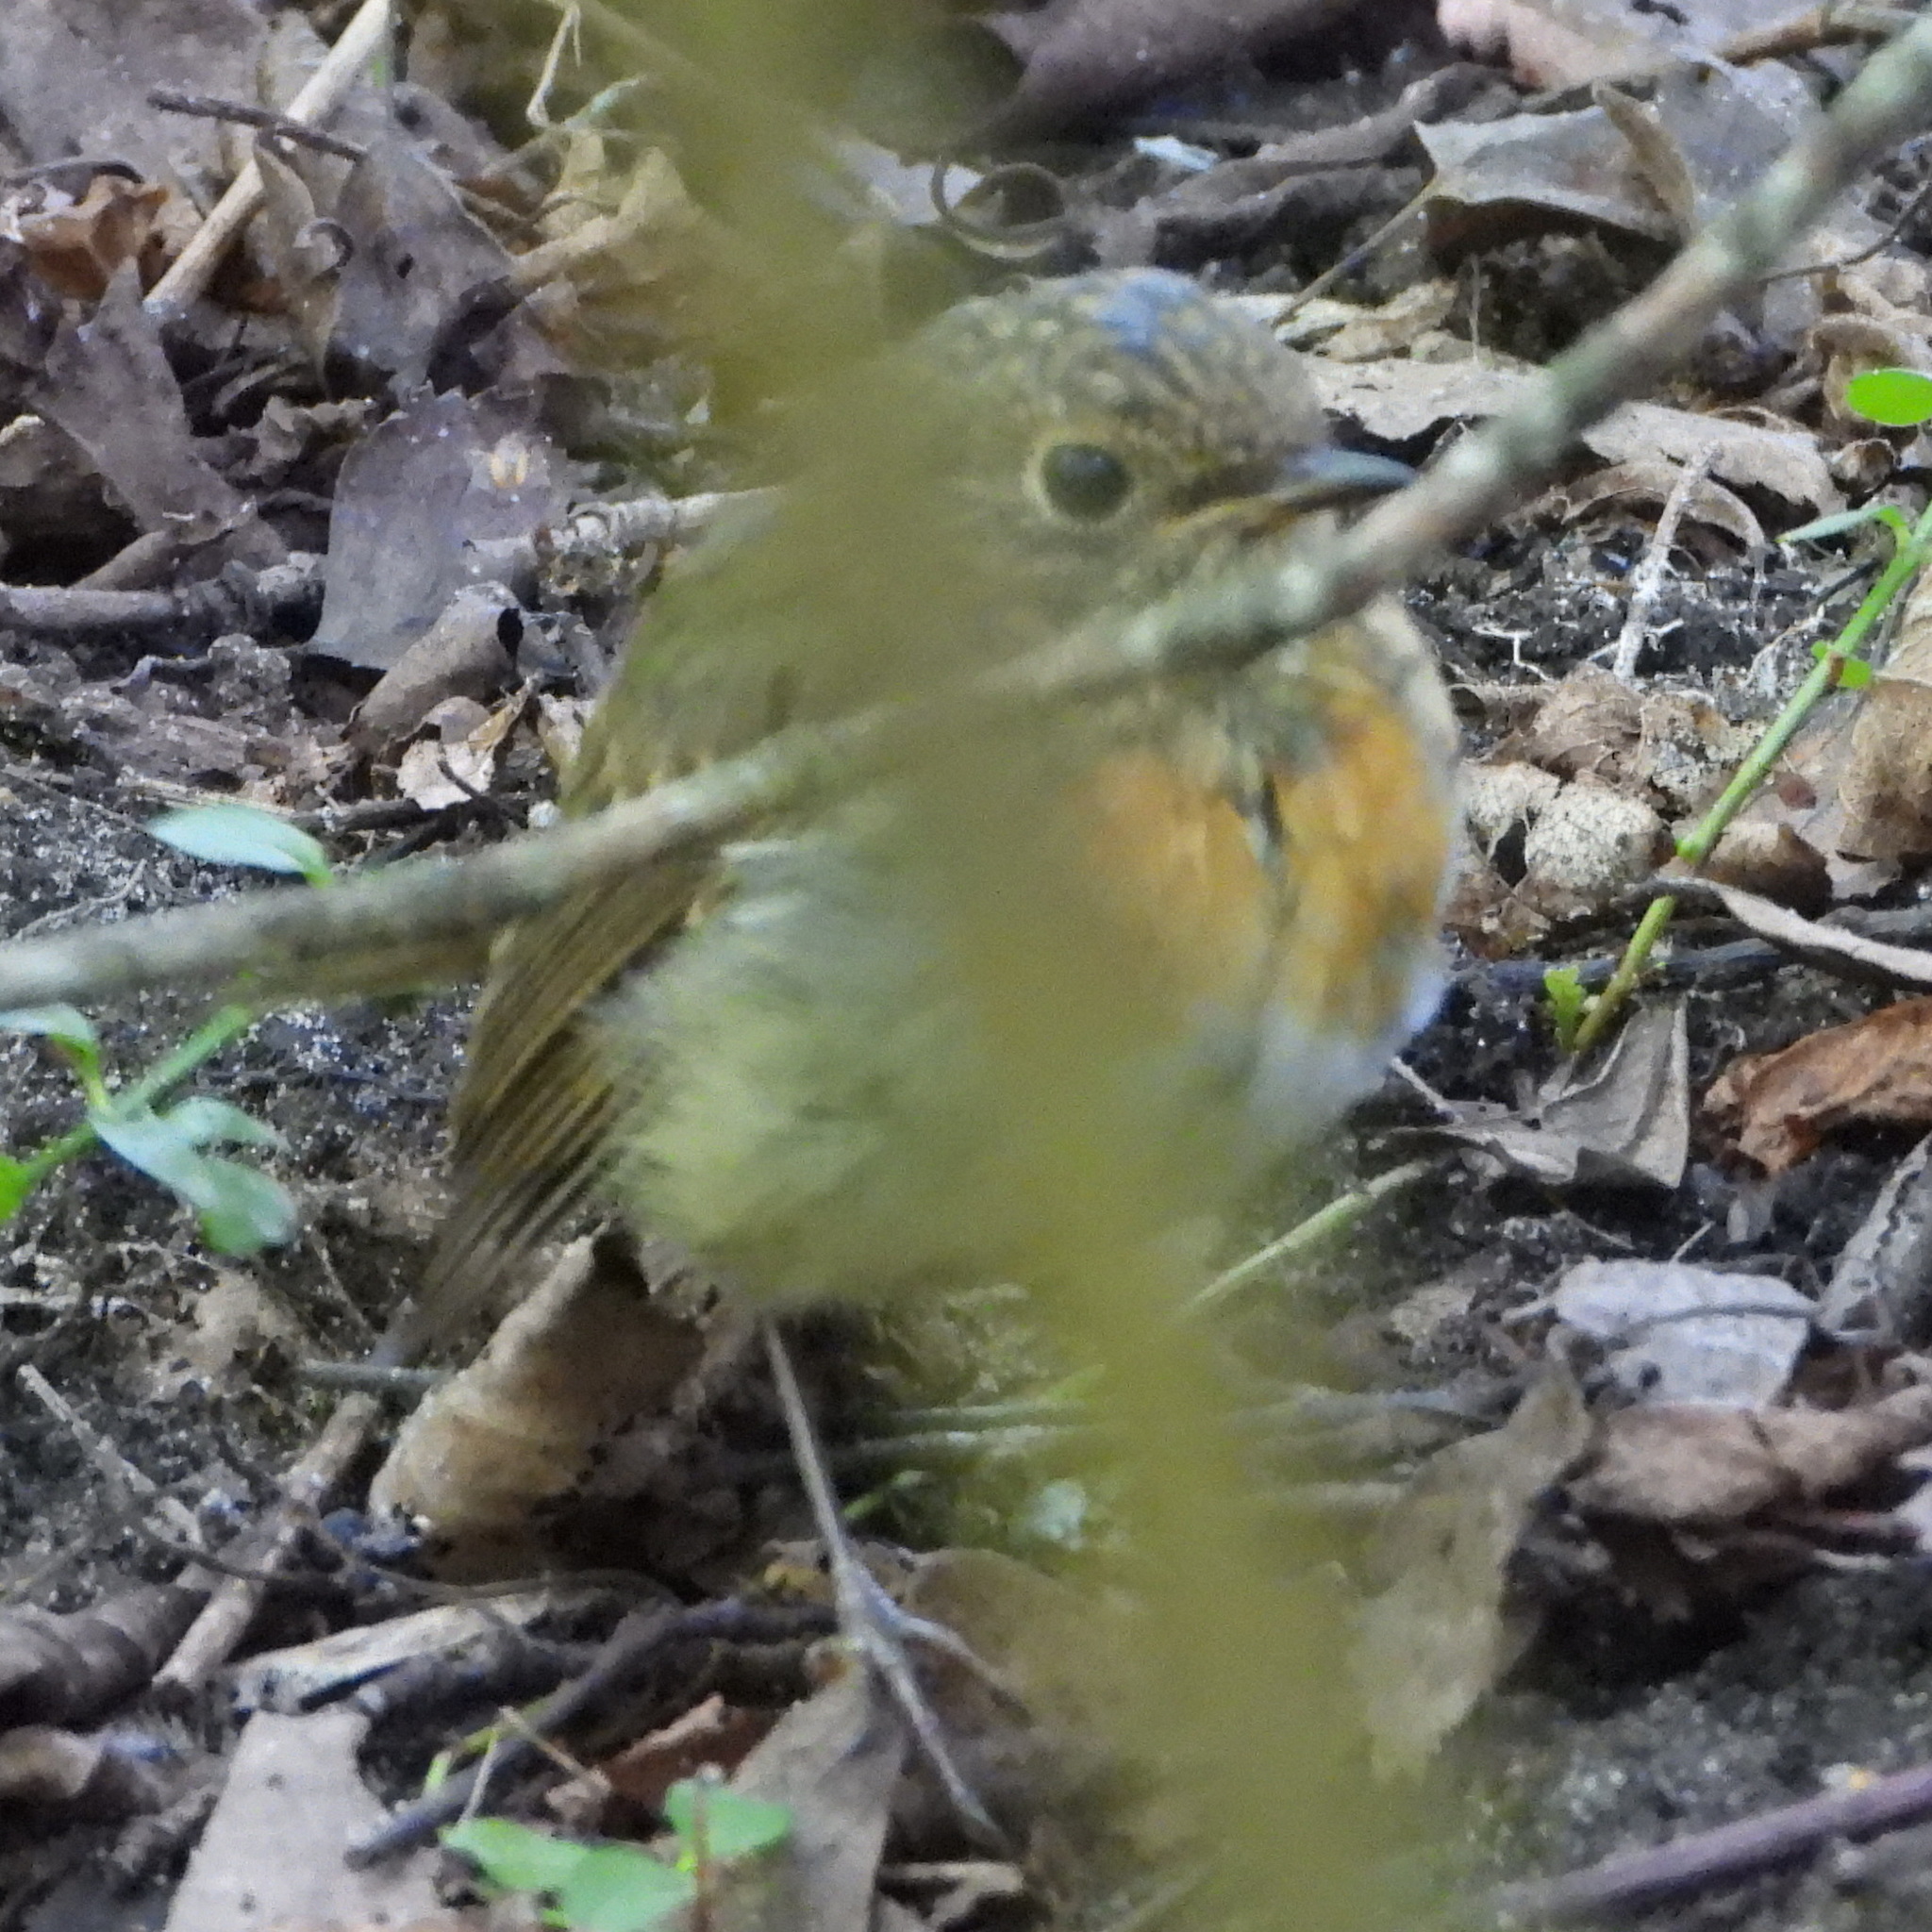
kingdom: Animalia
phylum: Chordata
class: Aves
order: Passeriformes
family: Muscicapidae
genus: Erithacus
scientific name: Erithacus rubecula
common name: European robin
